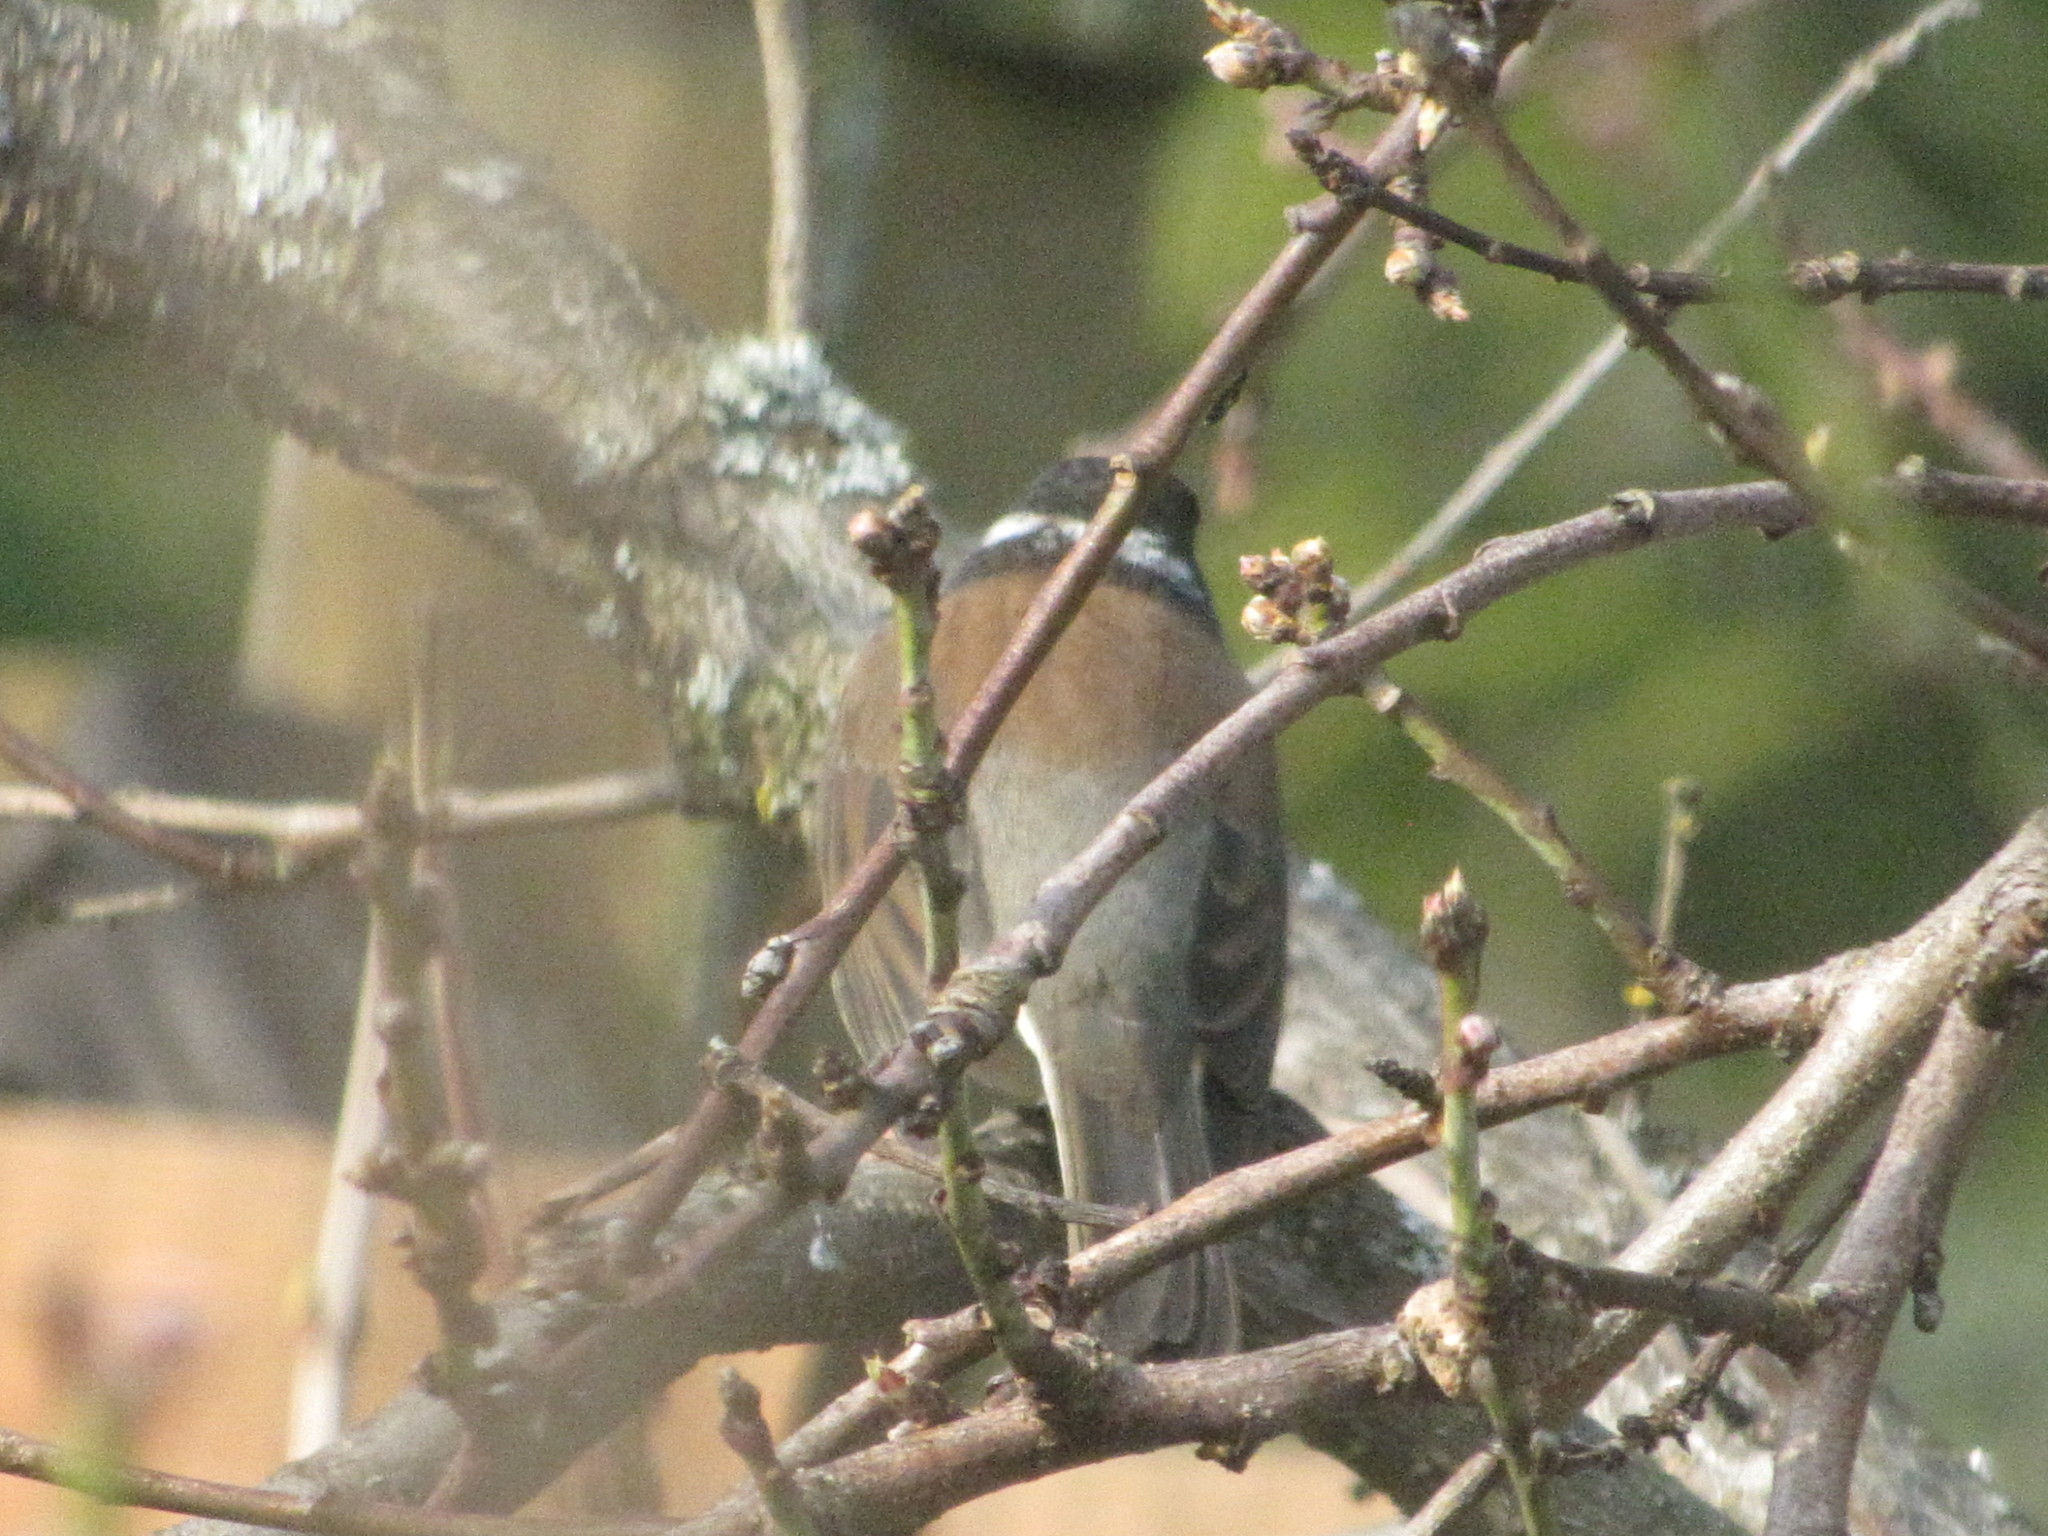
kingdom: Animalia
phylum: Chordata
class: Aves
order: Passeriformes
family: Passerellidae
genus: Junco
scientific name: Junco hyemalis
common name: Dark-eyed junco
